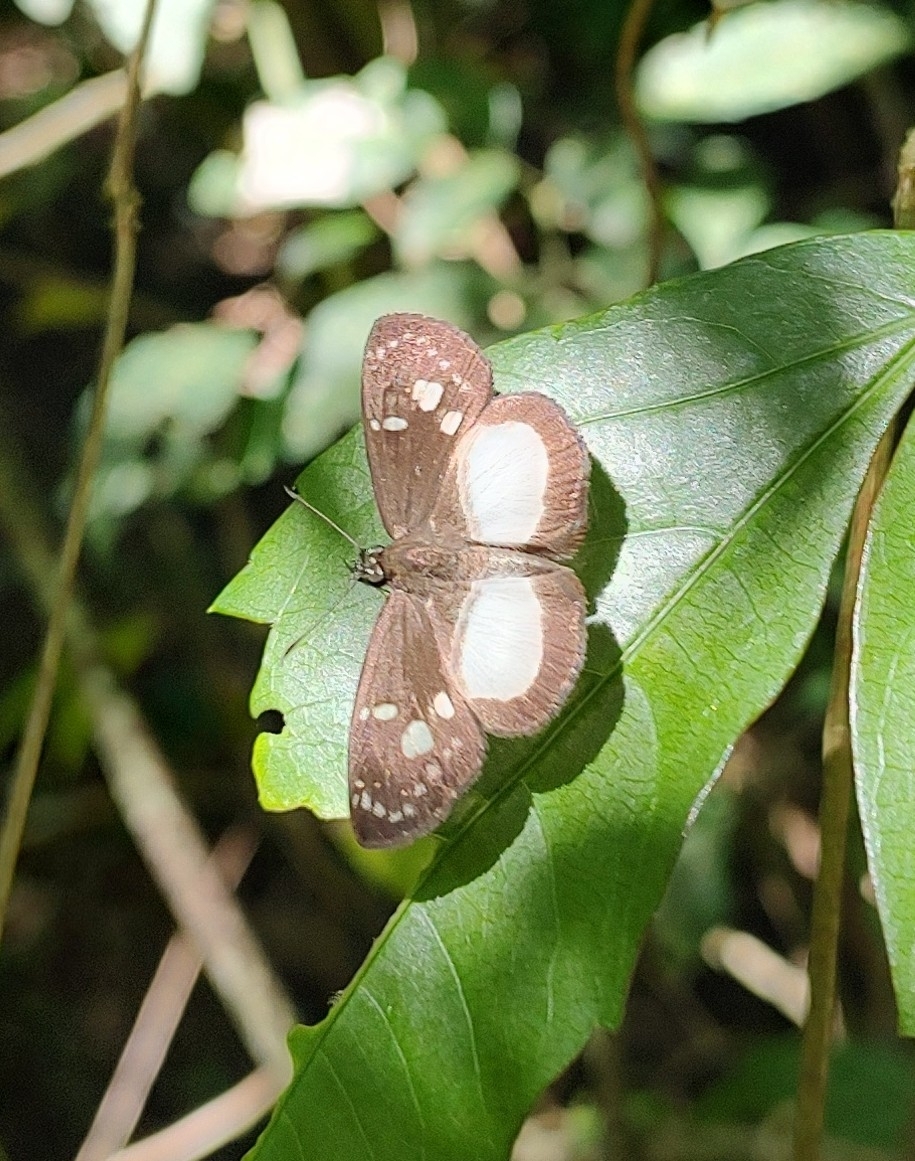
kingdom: Animalia
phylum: Arthropoda
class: Insecta
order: Lepidoptera
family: Hesperiidae
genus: Milanion
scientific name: Milanion leucaspis
